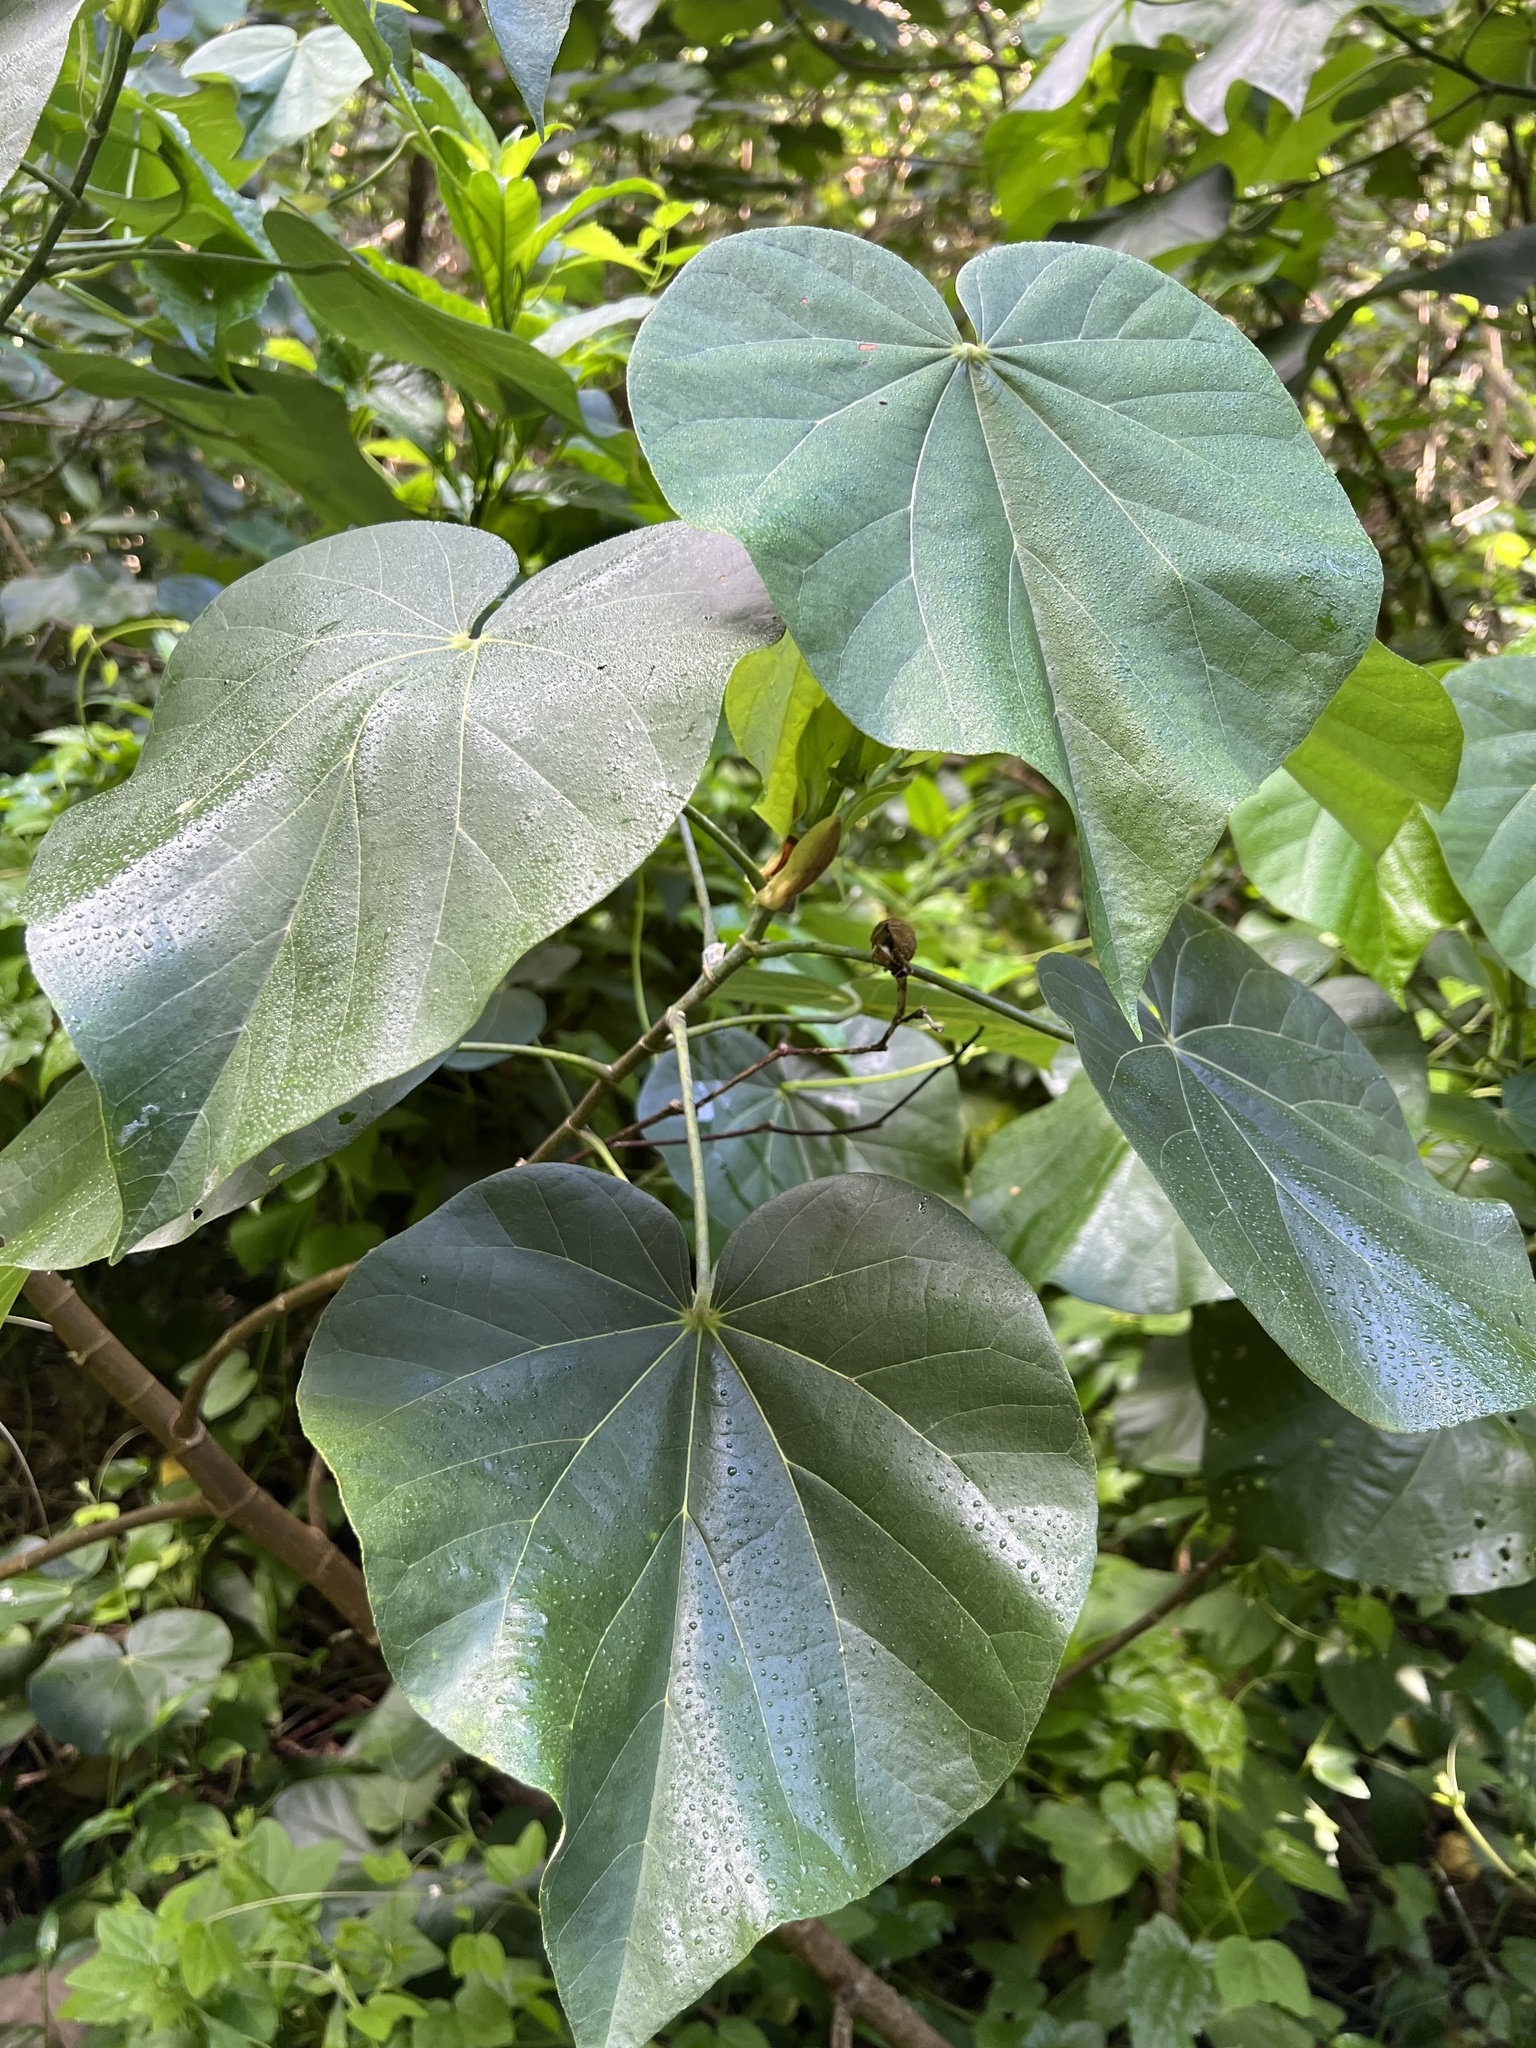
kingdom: Plantae
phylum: Tracheophyta
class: Magnoliopsida
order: Malvales
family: Malvaceae
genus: Talipariti
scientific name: Talipariti tiliaceum
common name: Sea hibiscus
